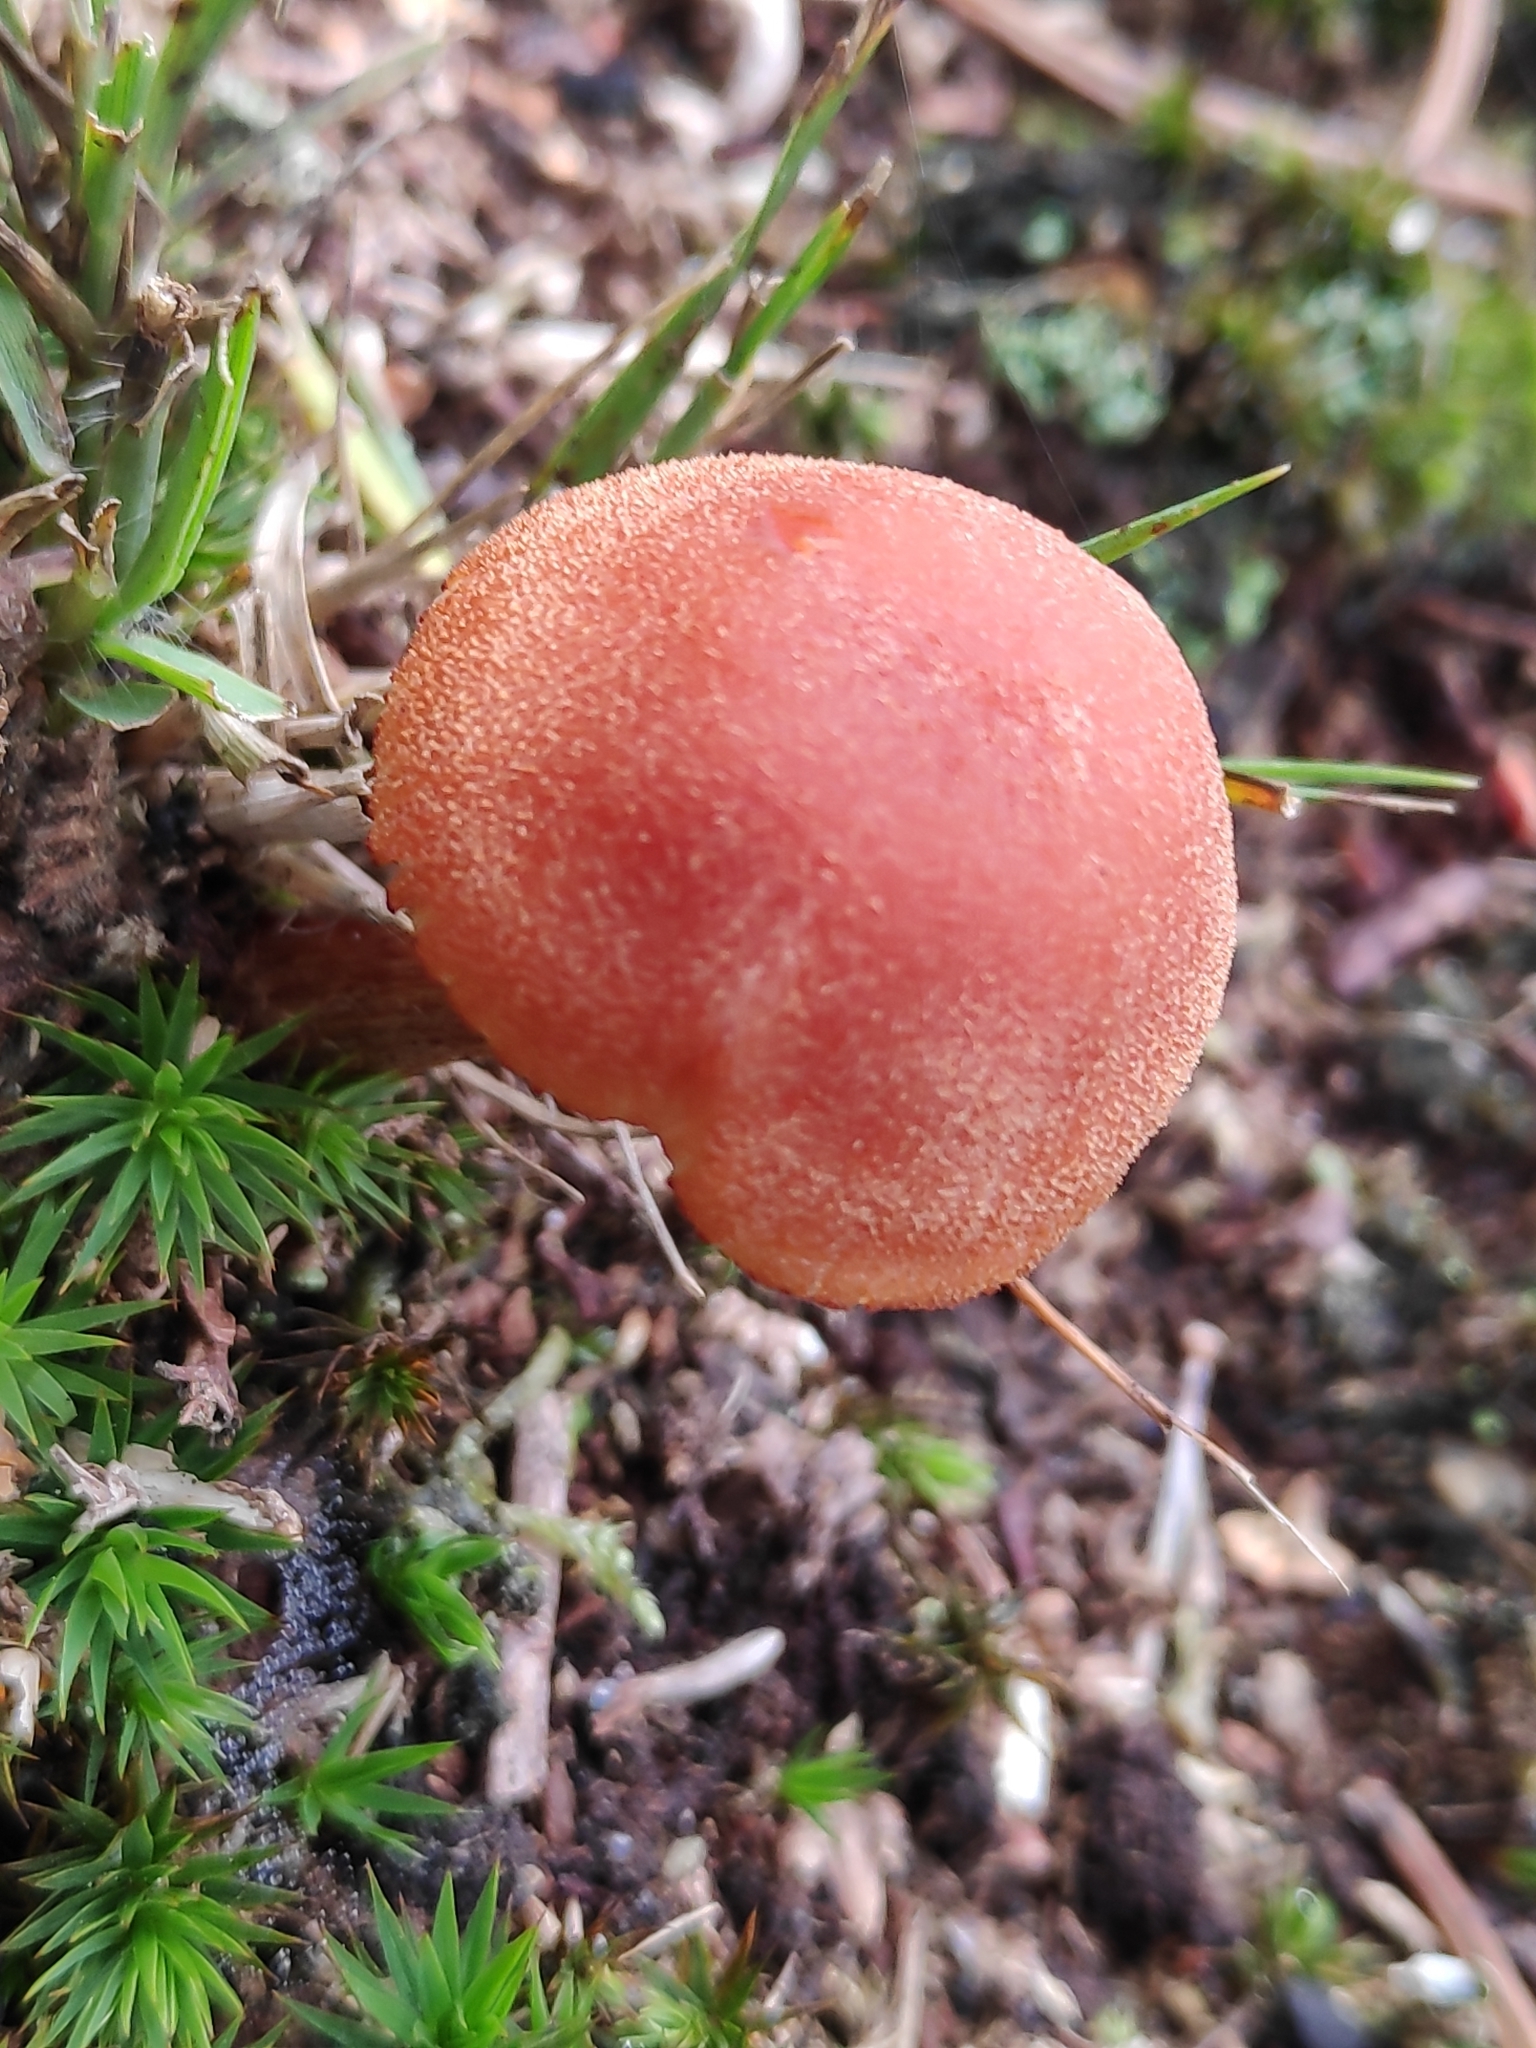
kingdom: Fungi
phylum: Basidiomycota
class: Agaricomycetes
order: Agaricales
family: Hydnangiaceae
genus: Laccaria
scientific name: Laccaria proxima
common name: Scurfy deceiver
